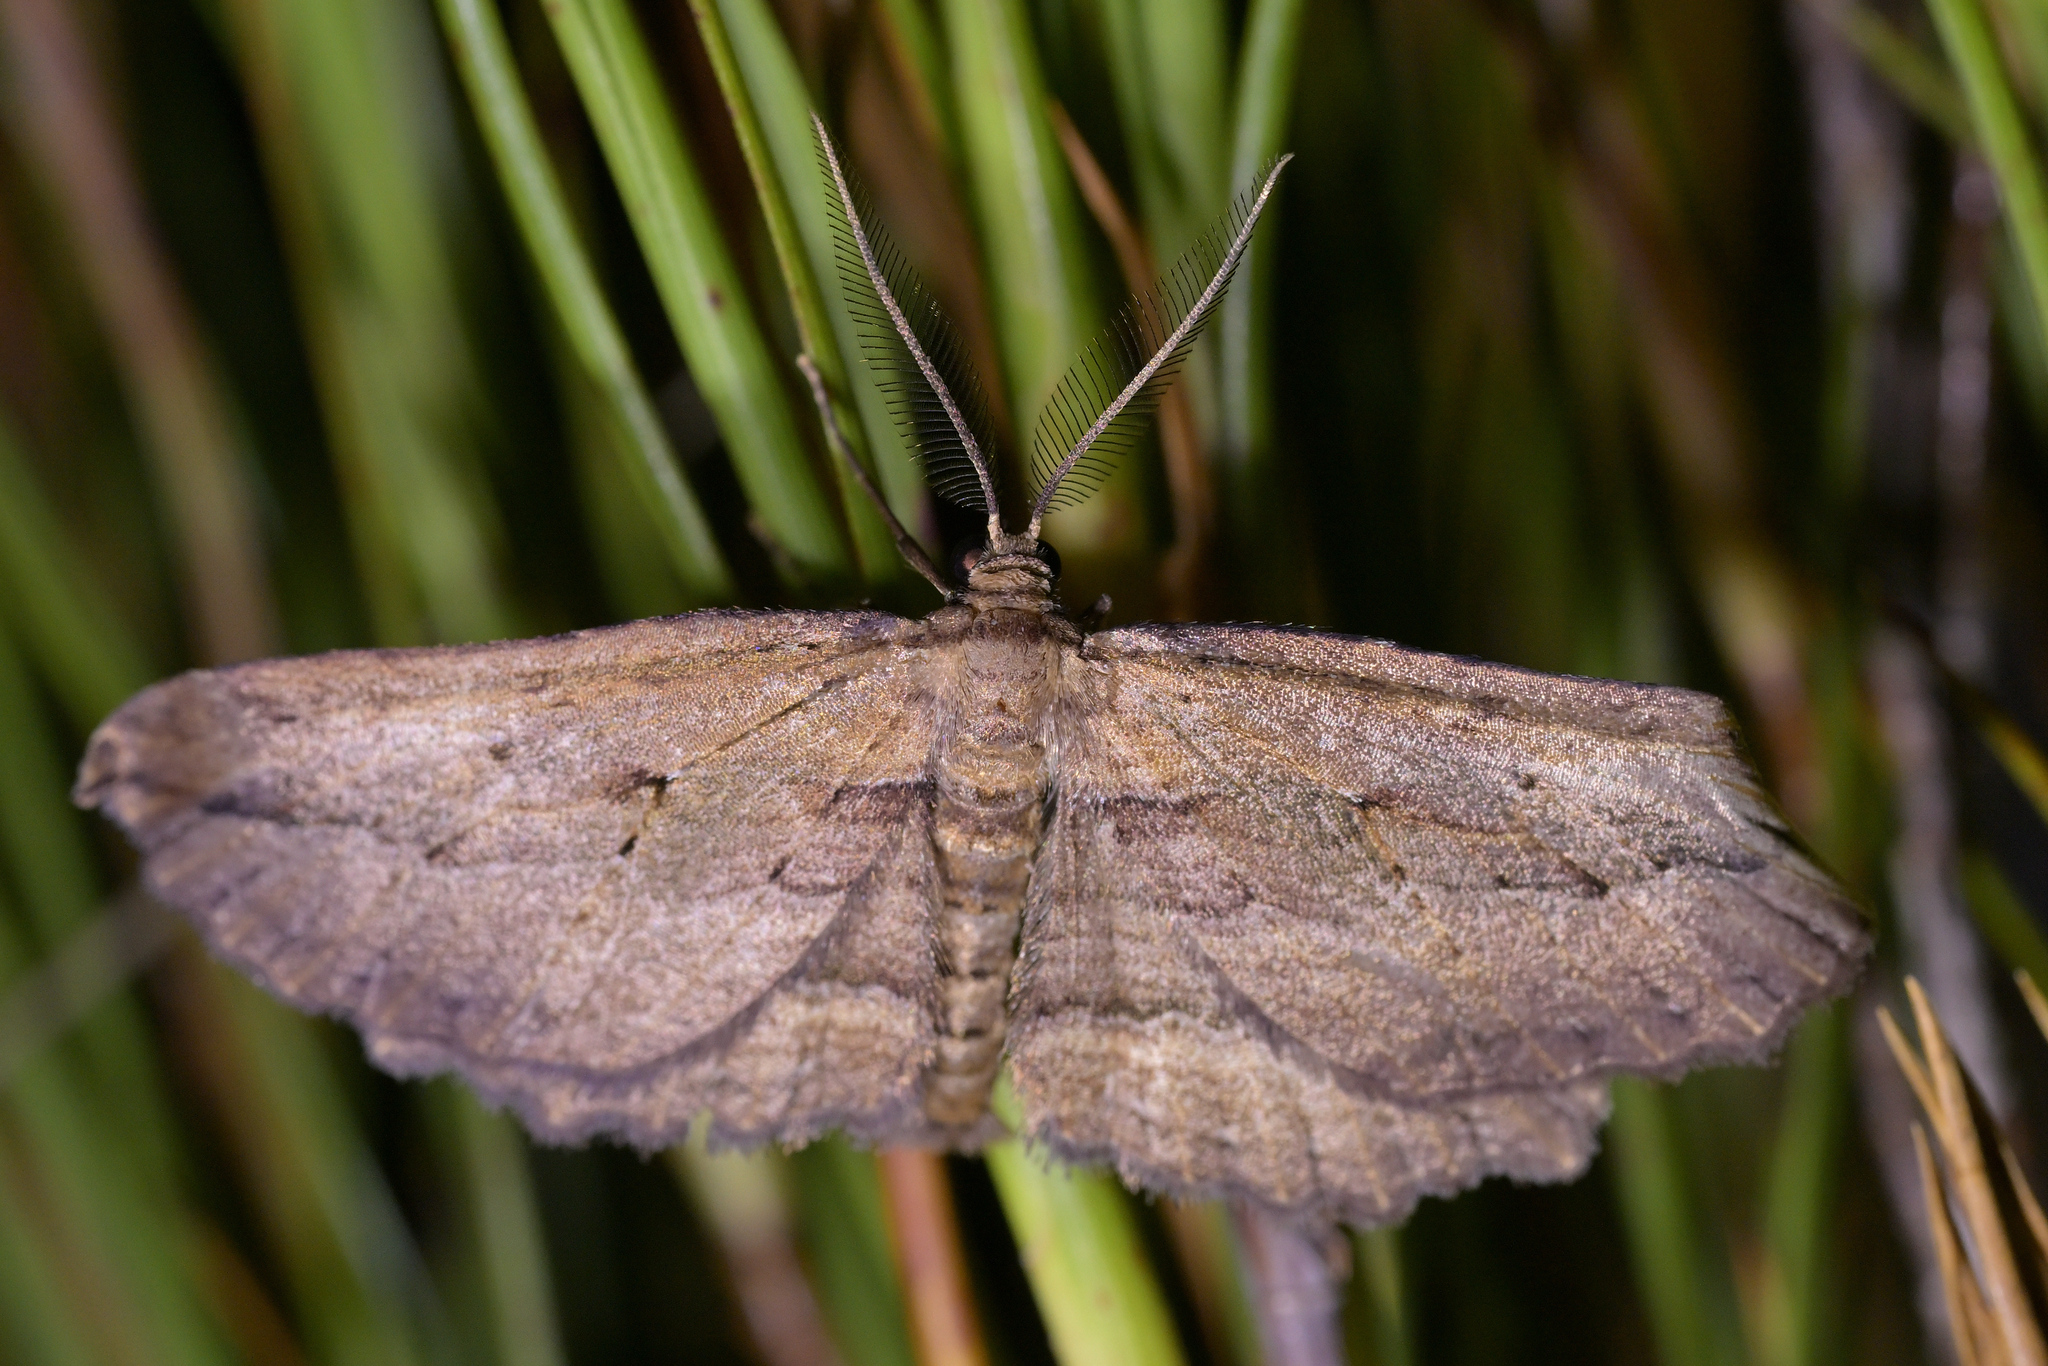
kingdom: Animalia
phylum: Arthropoda
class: Insecta
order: Lepidoptera
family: Geometridae
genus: Aponotoreas
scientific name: Aponotoreas dissimilis
